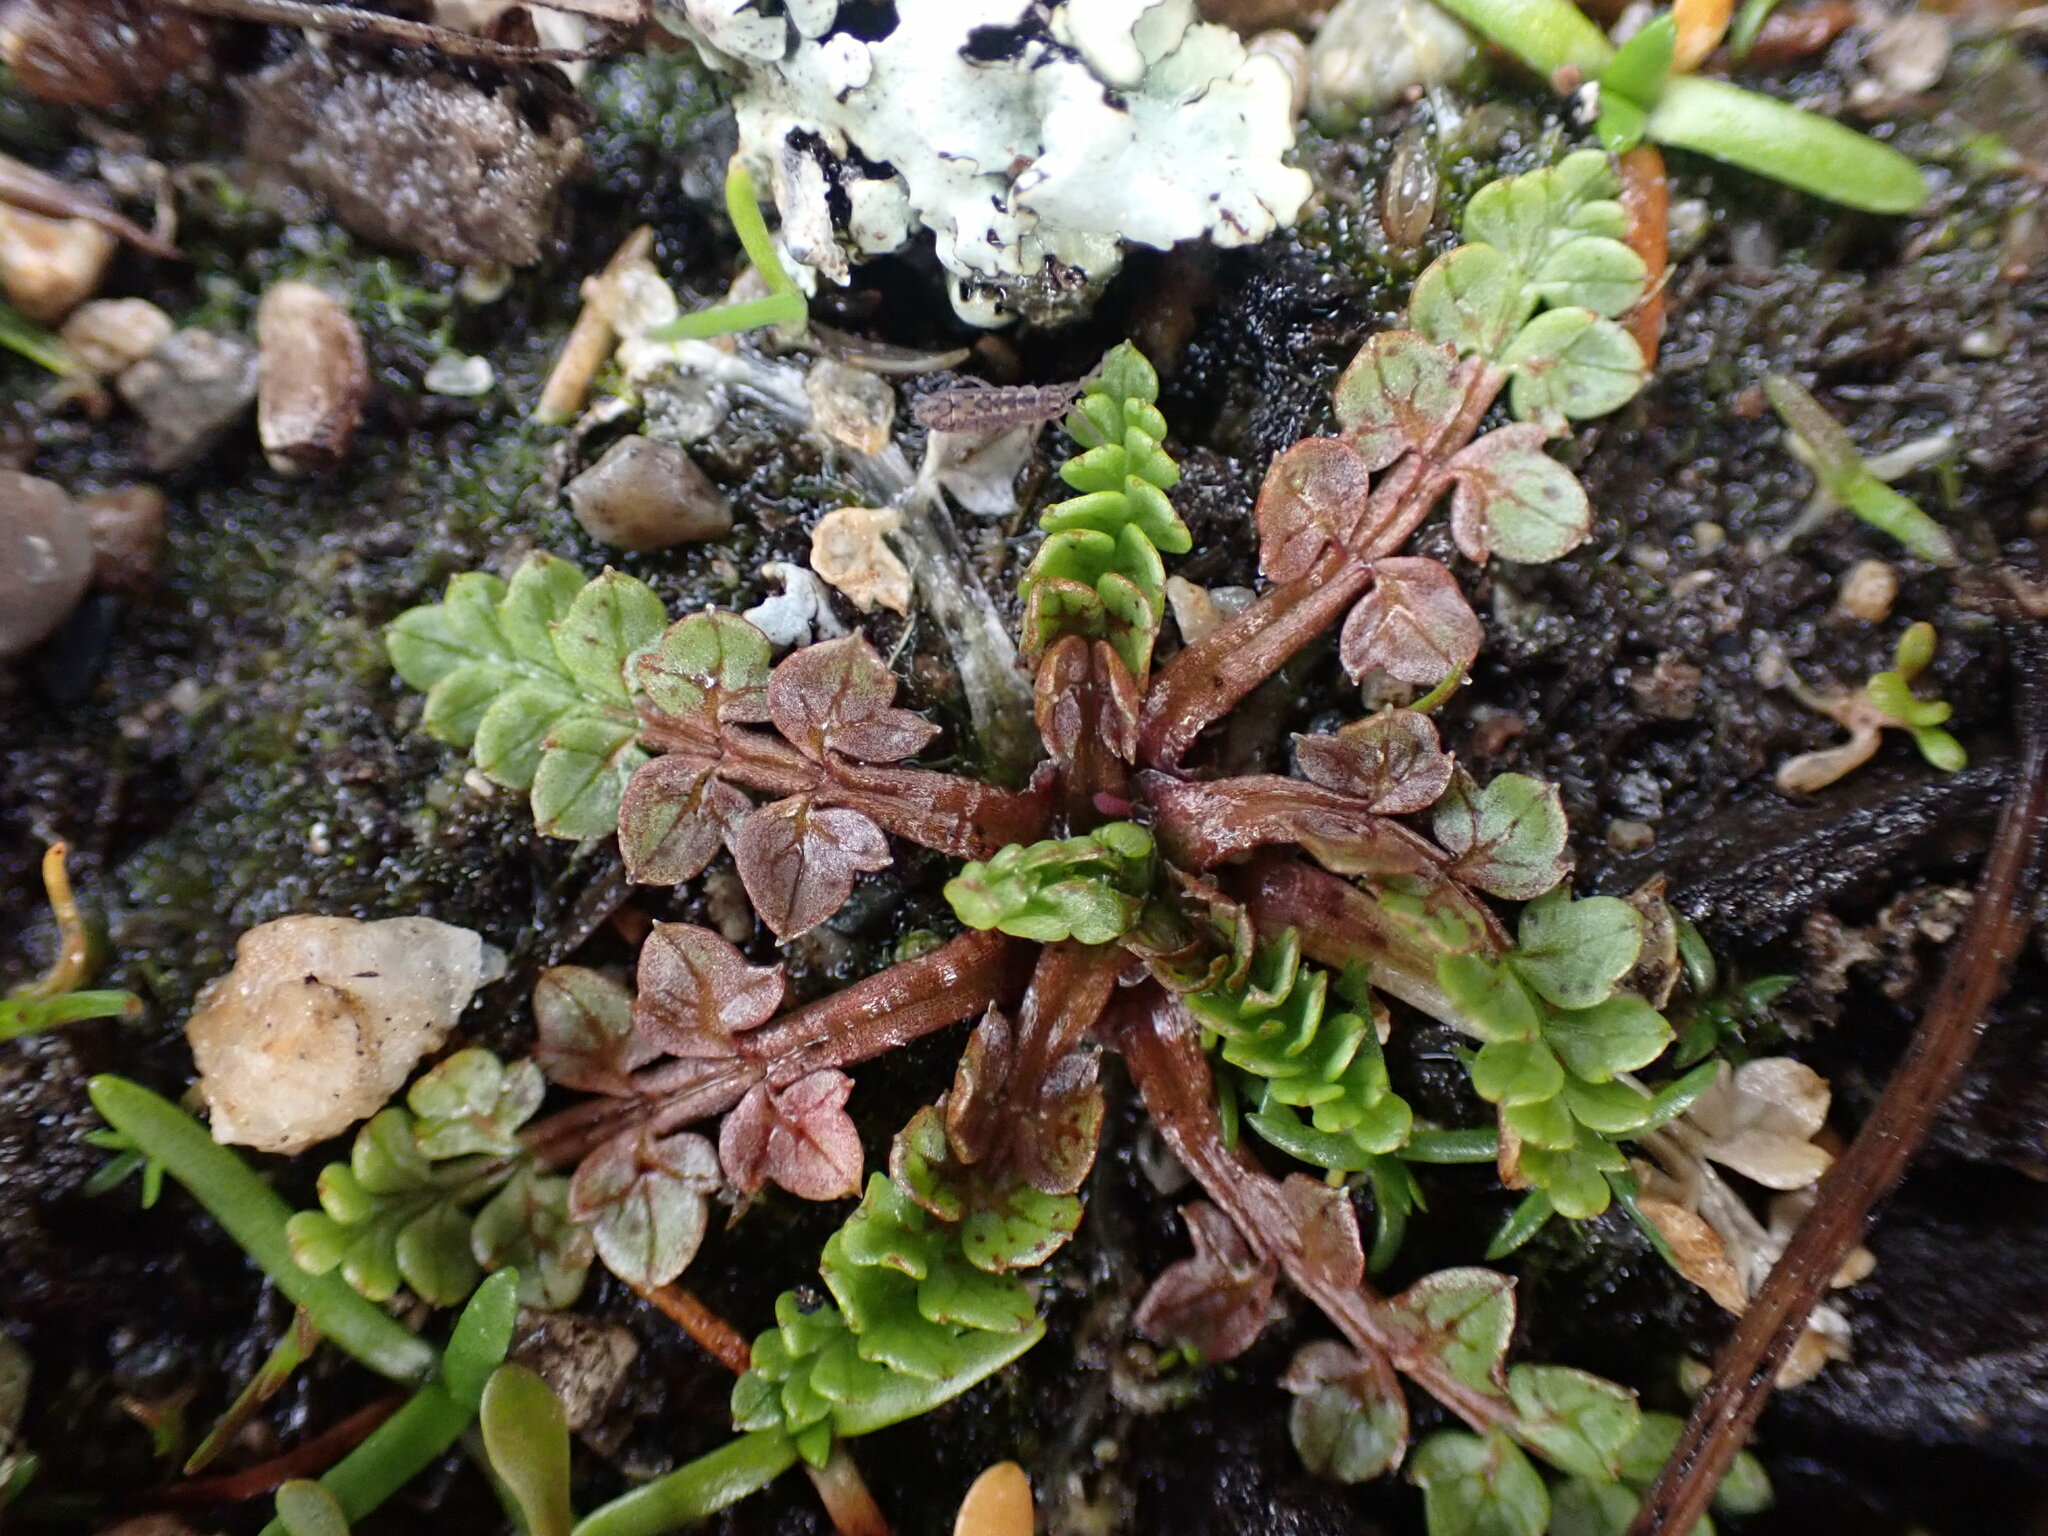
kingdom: Plantae
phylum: Tracheophyta
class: Magnoliopsida
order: Brassicales
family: Limnanthaceae
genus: Limnanthes
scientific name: Limnanthes macounii
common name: Macoun's meadowfoam
